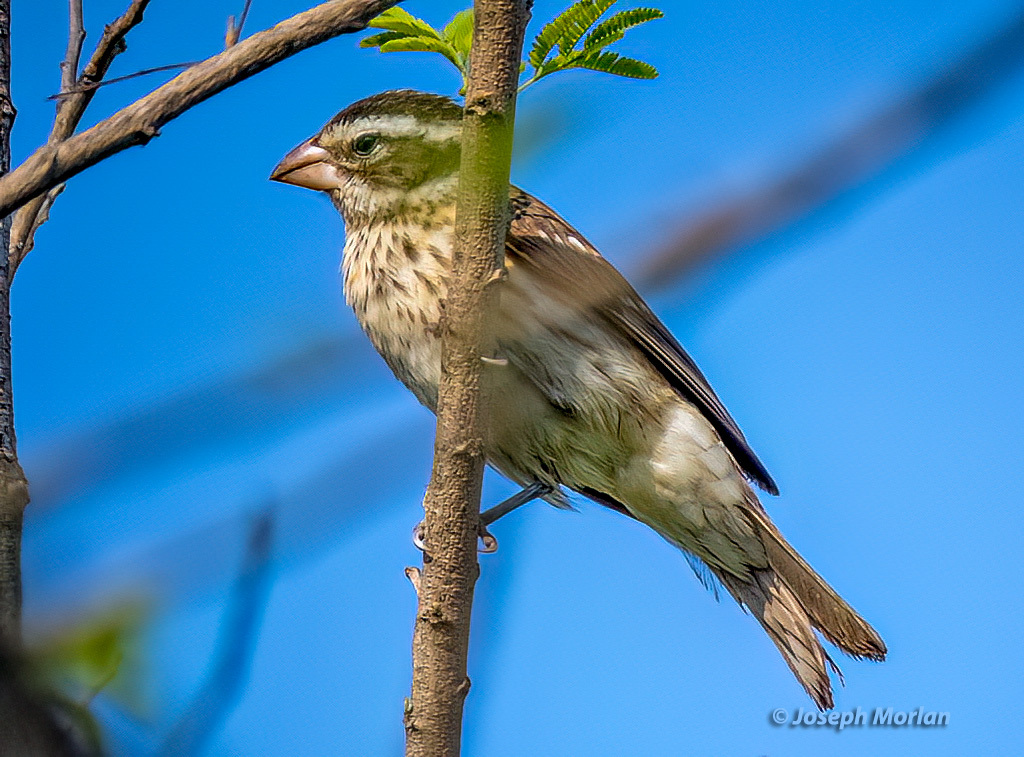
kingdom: Animalia
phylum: Chordata
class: Aves
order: Passeriformes
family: Cardinalidae
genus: Pheucticus
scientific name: Pheucticus ludovicianus
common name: Rose-breasted grosbeak
